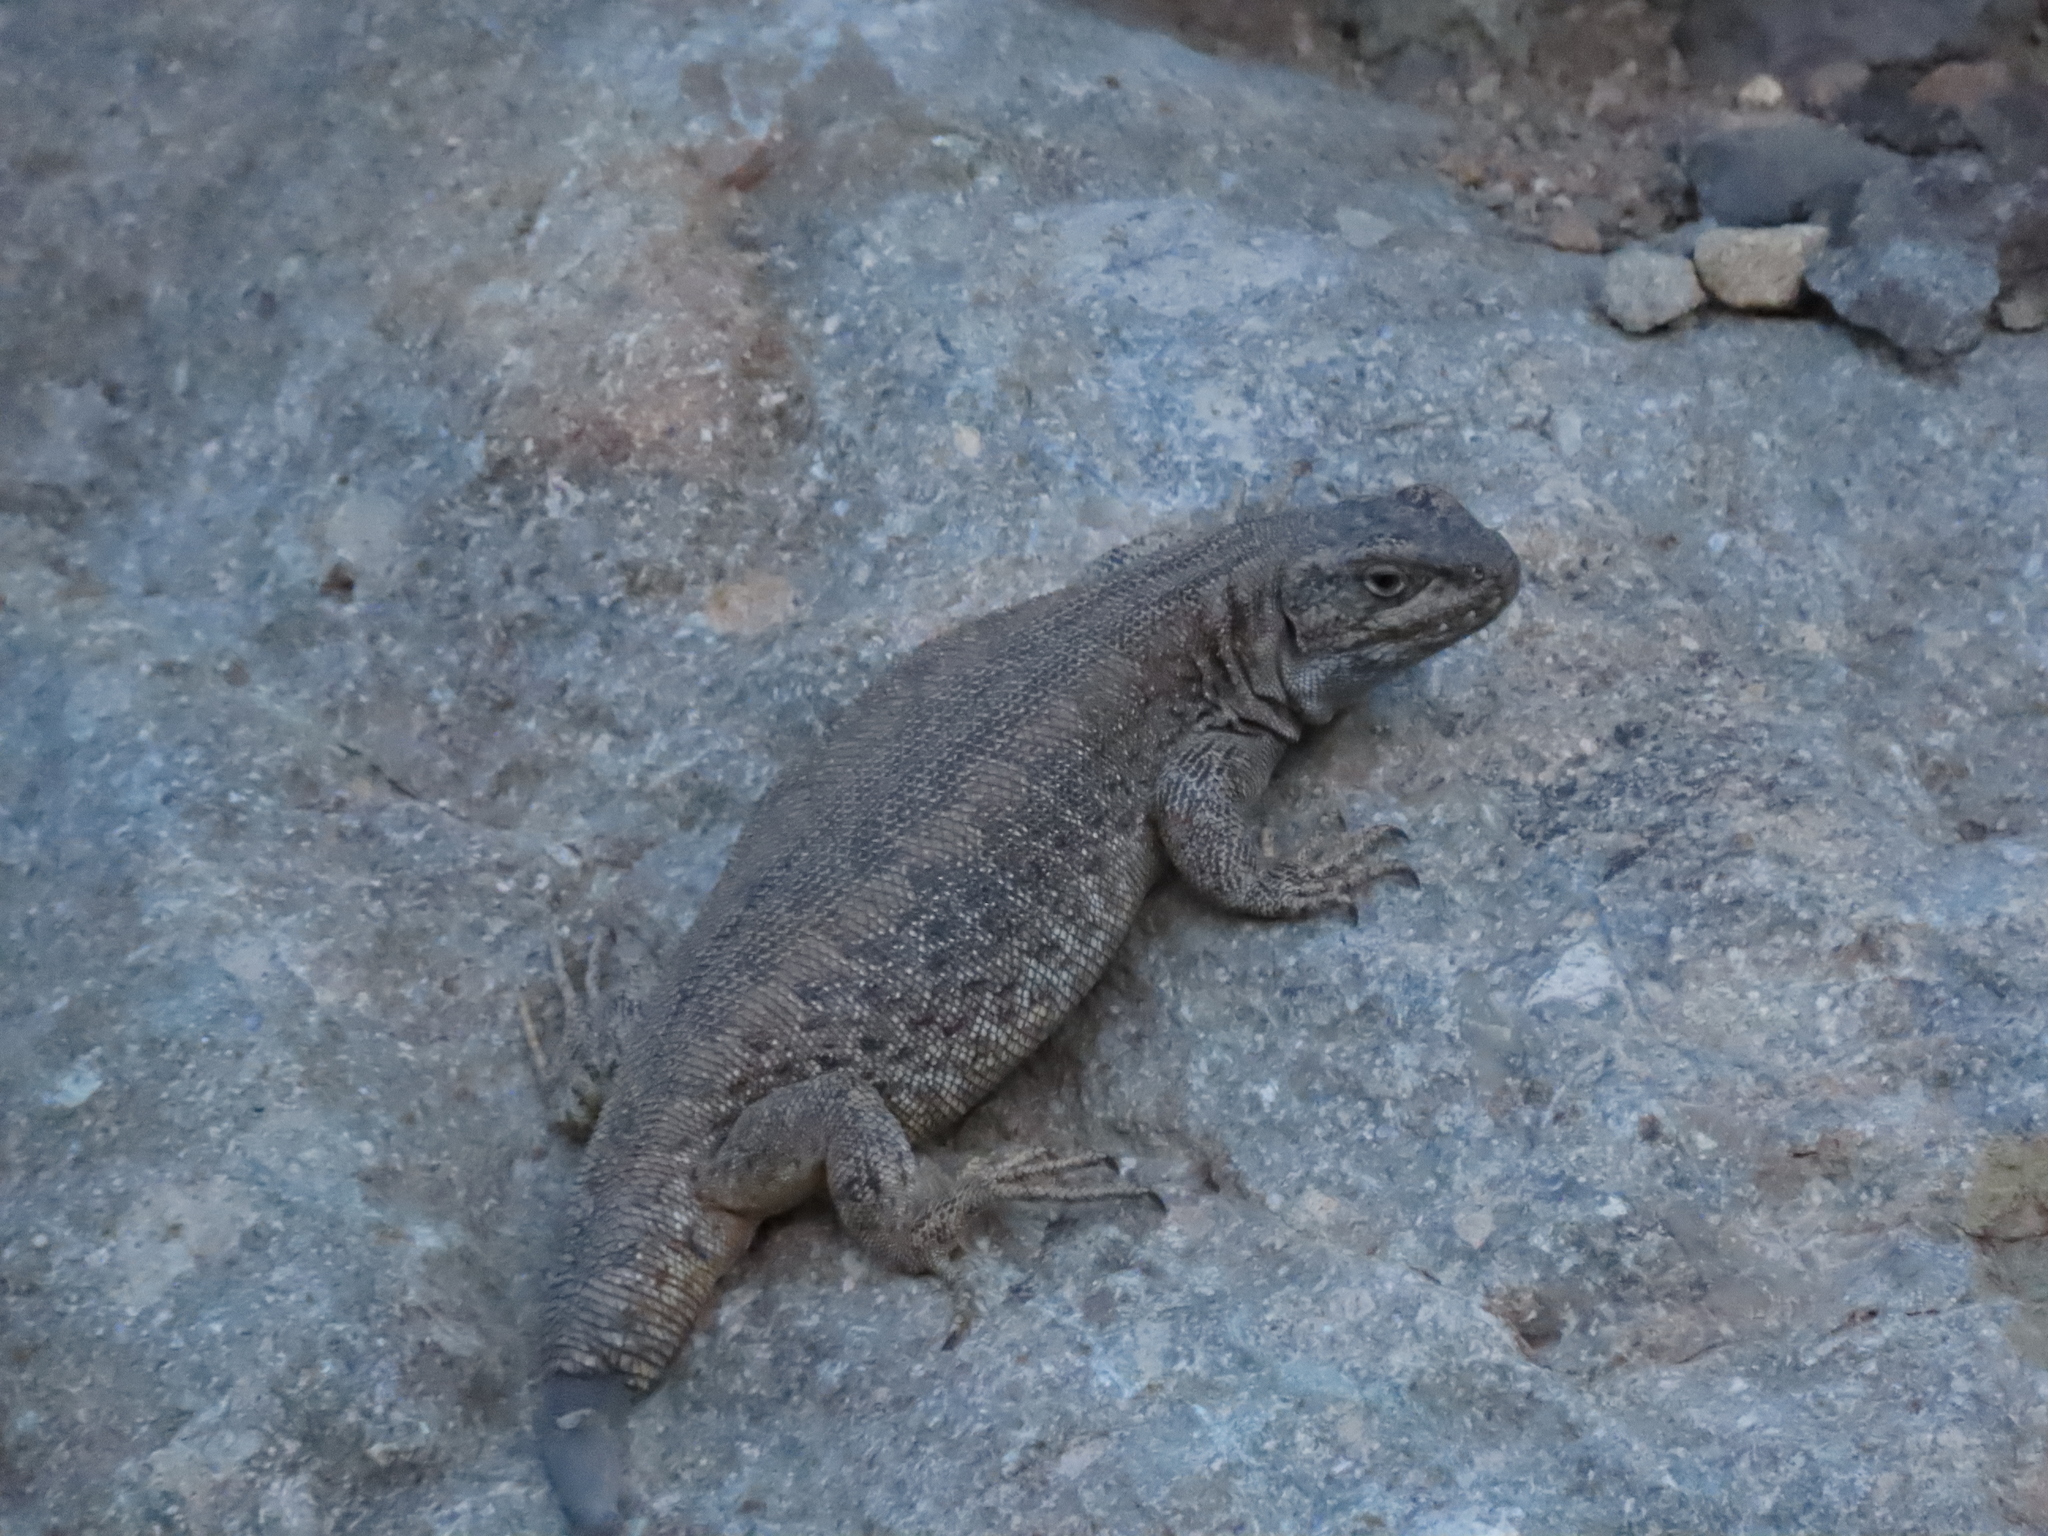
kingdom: Animalia
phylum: Chordata
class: Squamata
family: Liolaemidae
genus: Liolaemus
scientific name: Liolaemus buergeri
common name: Buerger's tree iguana
